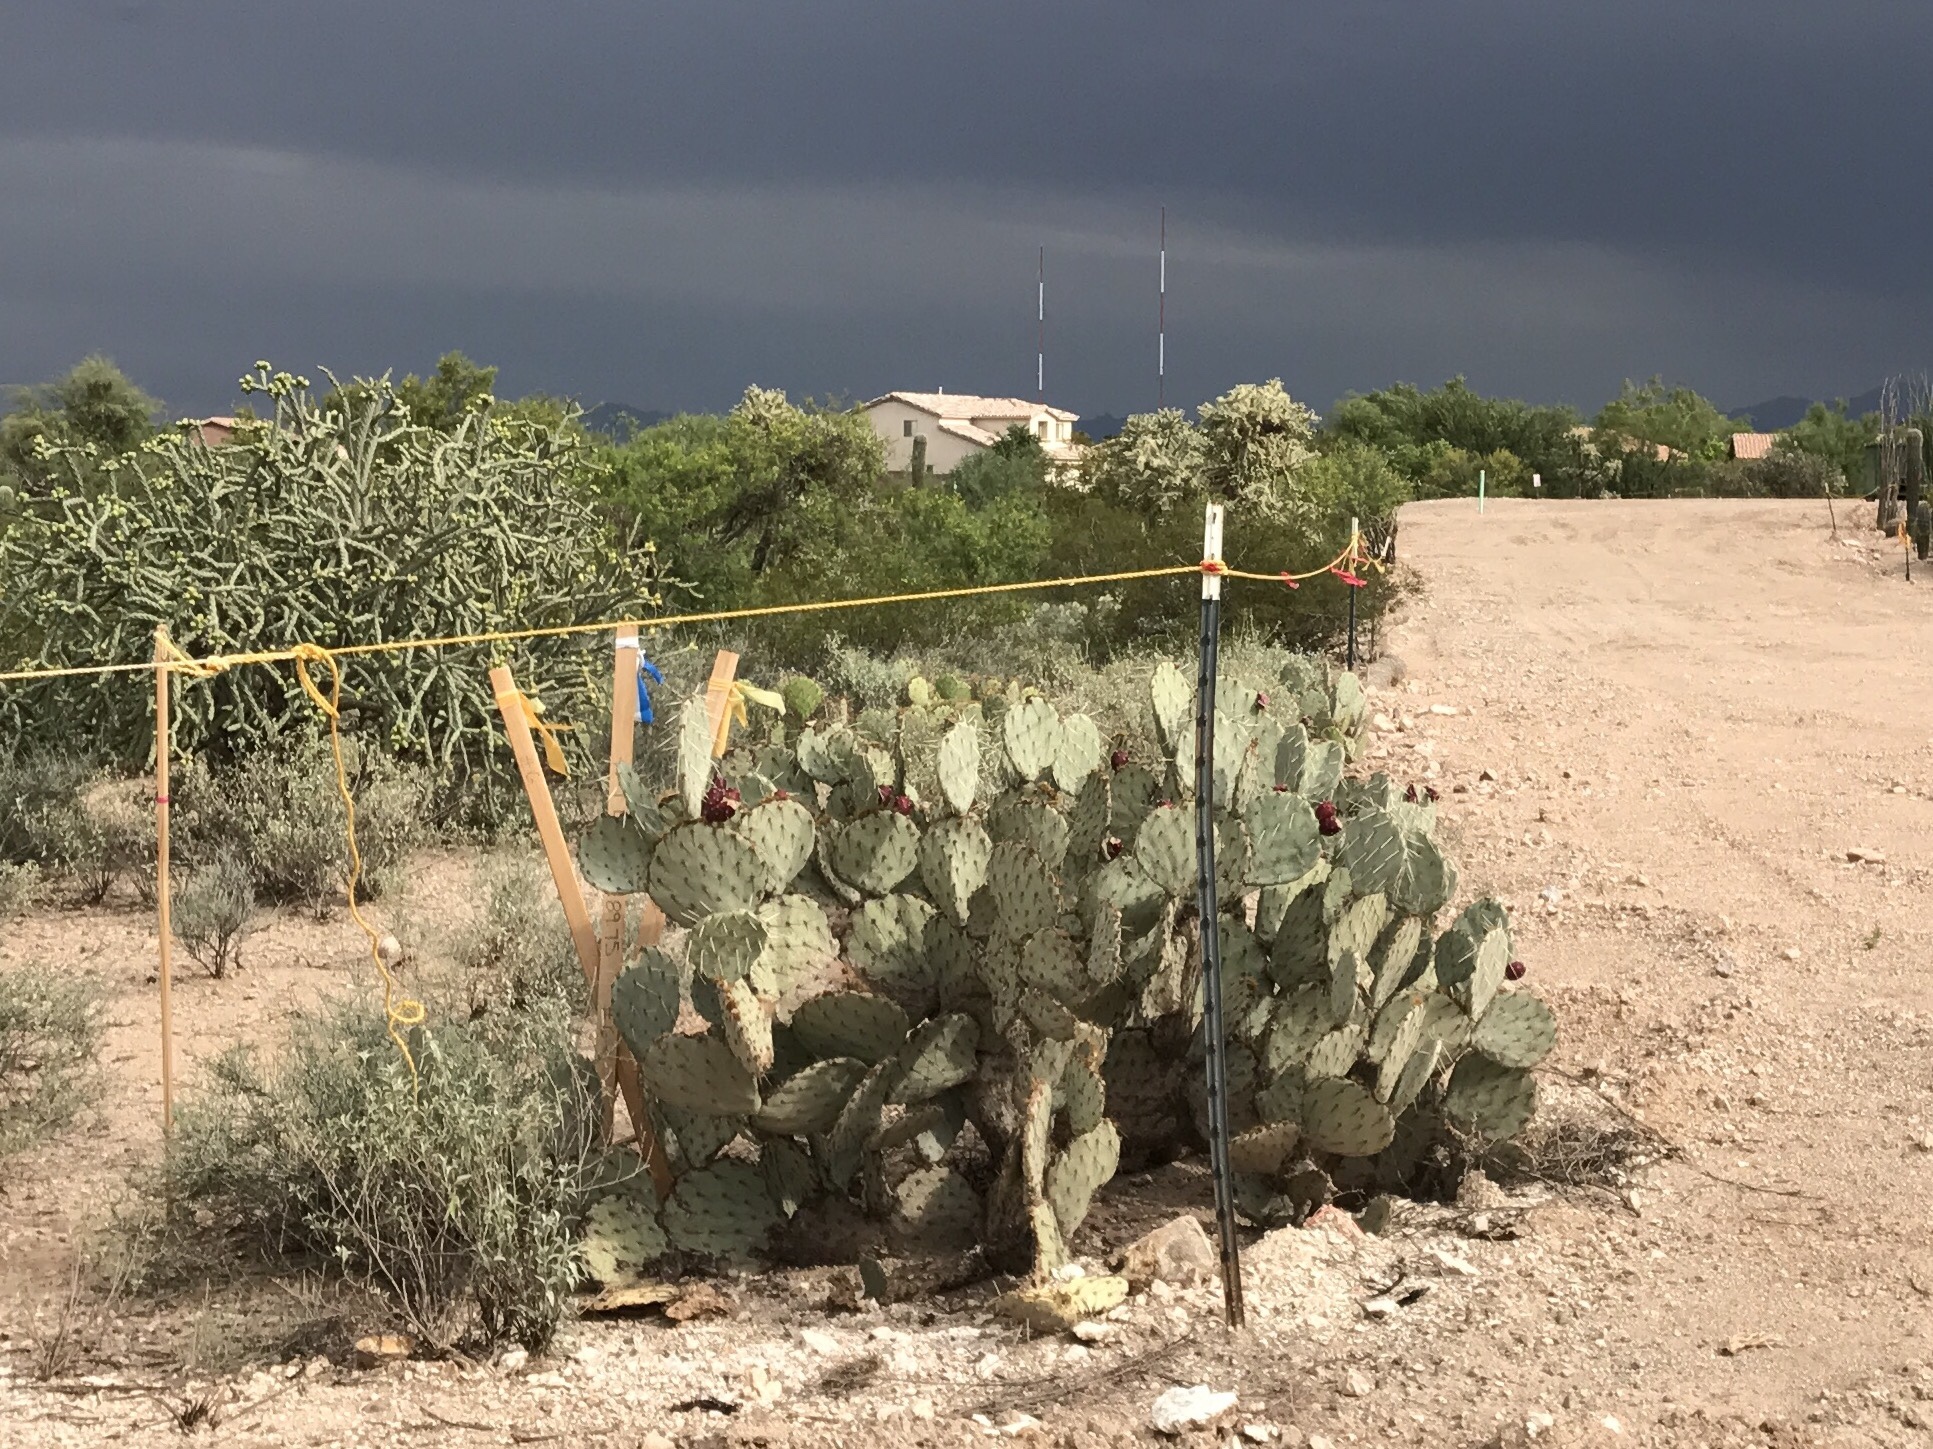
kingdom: Plantae
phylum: Tracheophyta
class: Magnoliopsida
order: Caryophyllales
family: Cactaceae
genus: Opuntia
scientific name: Opuntia engelmannii
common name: Cactus-apple
